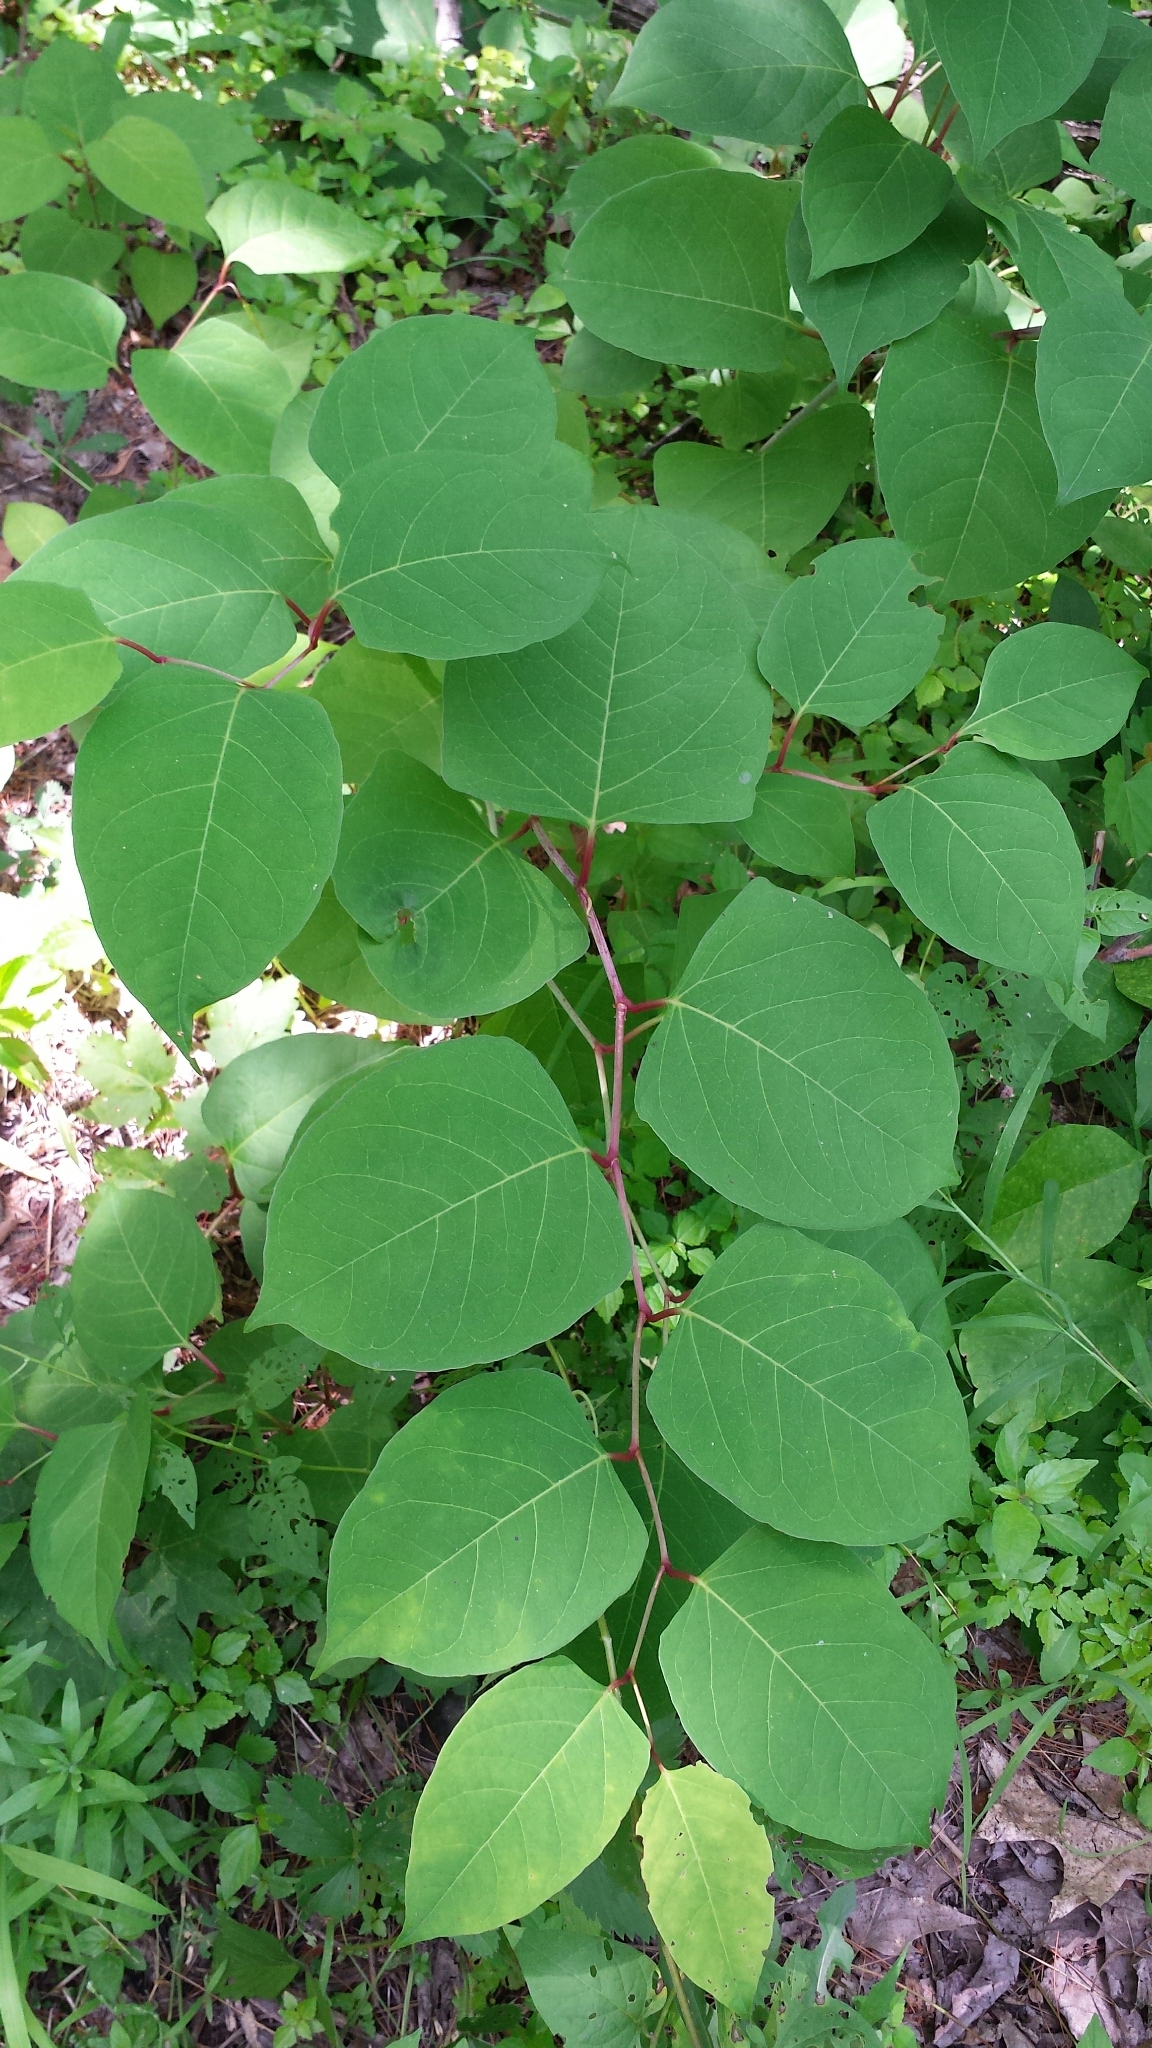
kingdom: Plantae
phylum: Tracheophyta
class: Magnoliopsida
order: Caryophyllales
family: Polygonaceae
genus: Reynoutria
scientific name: Reynoutria japonica
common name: Japanese knotweed
